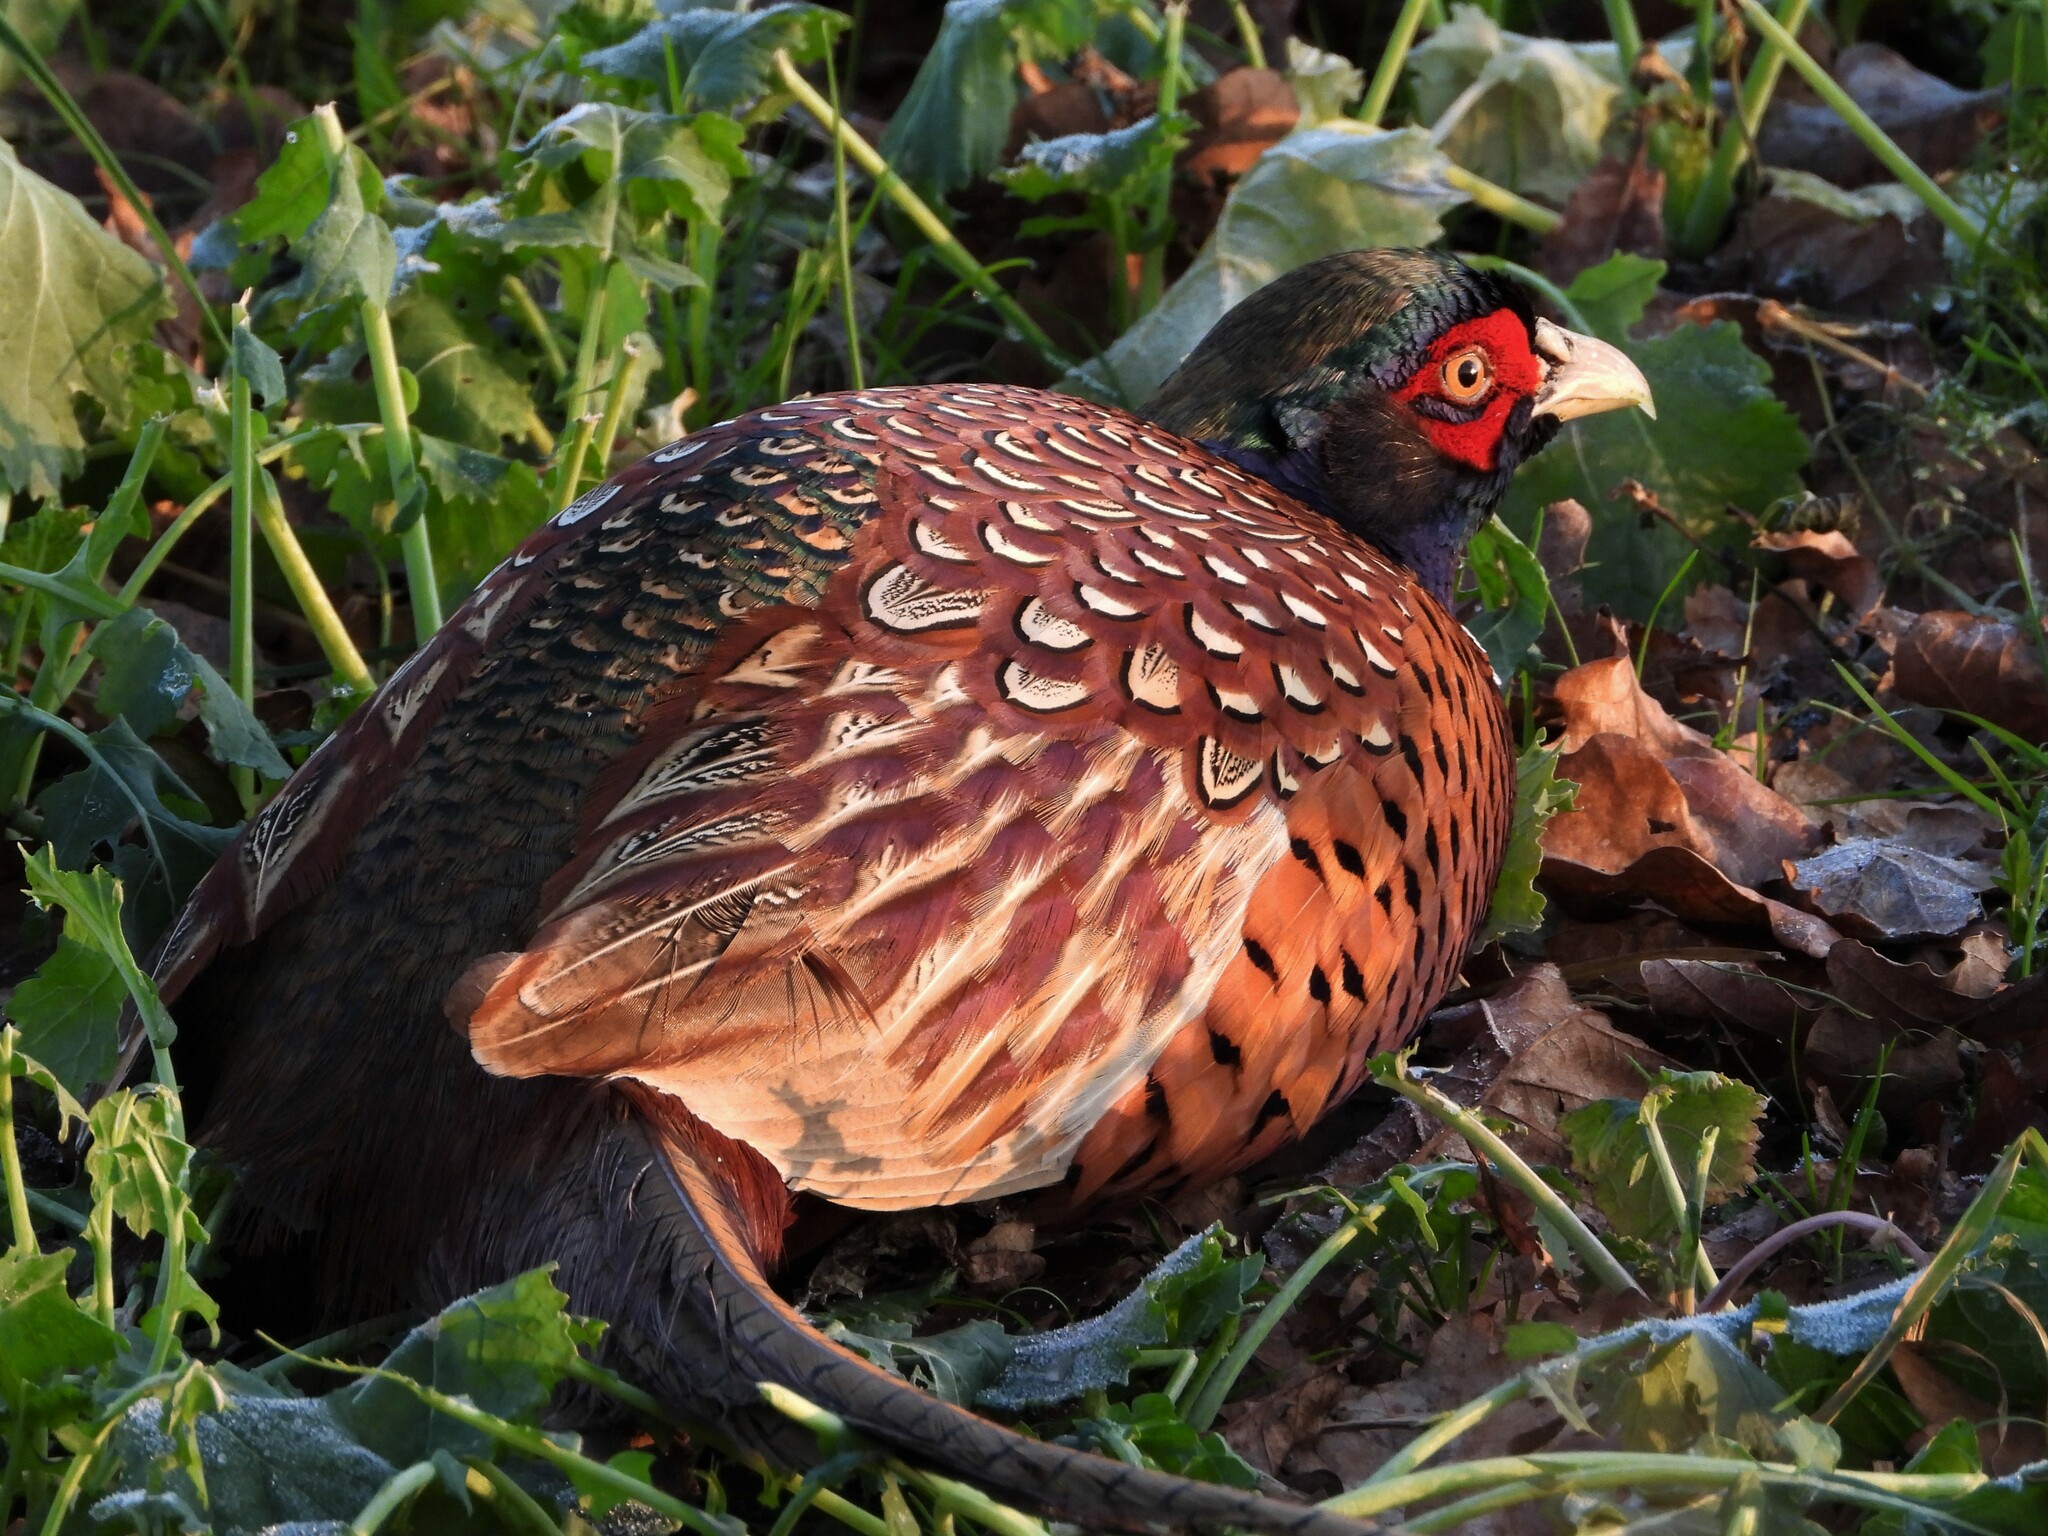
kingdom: Animalia
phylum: Chordata
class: Aves
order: Galliformes
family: Phasianidae
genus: Phasianus
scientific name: Phasianus colchicus
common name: Common pheasant
